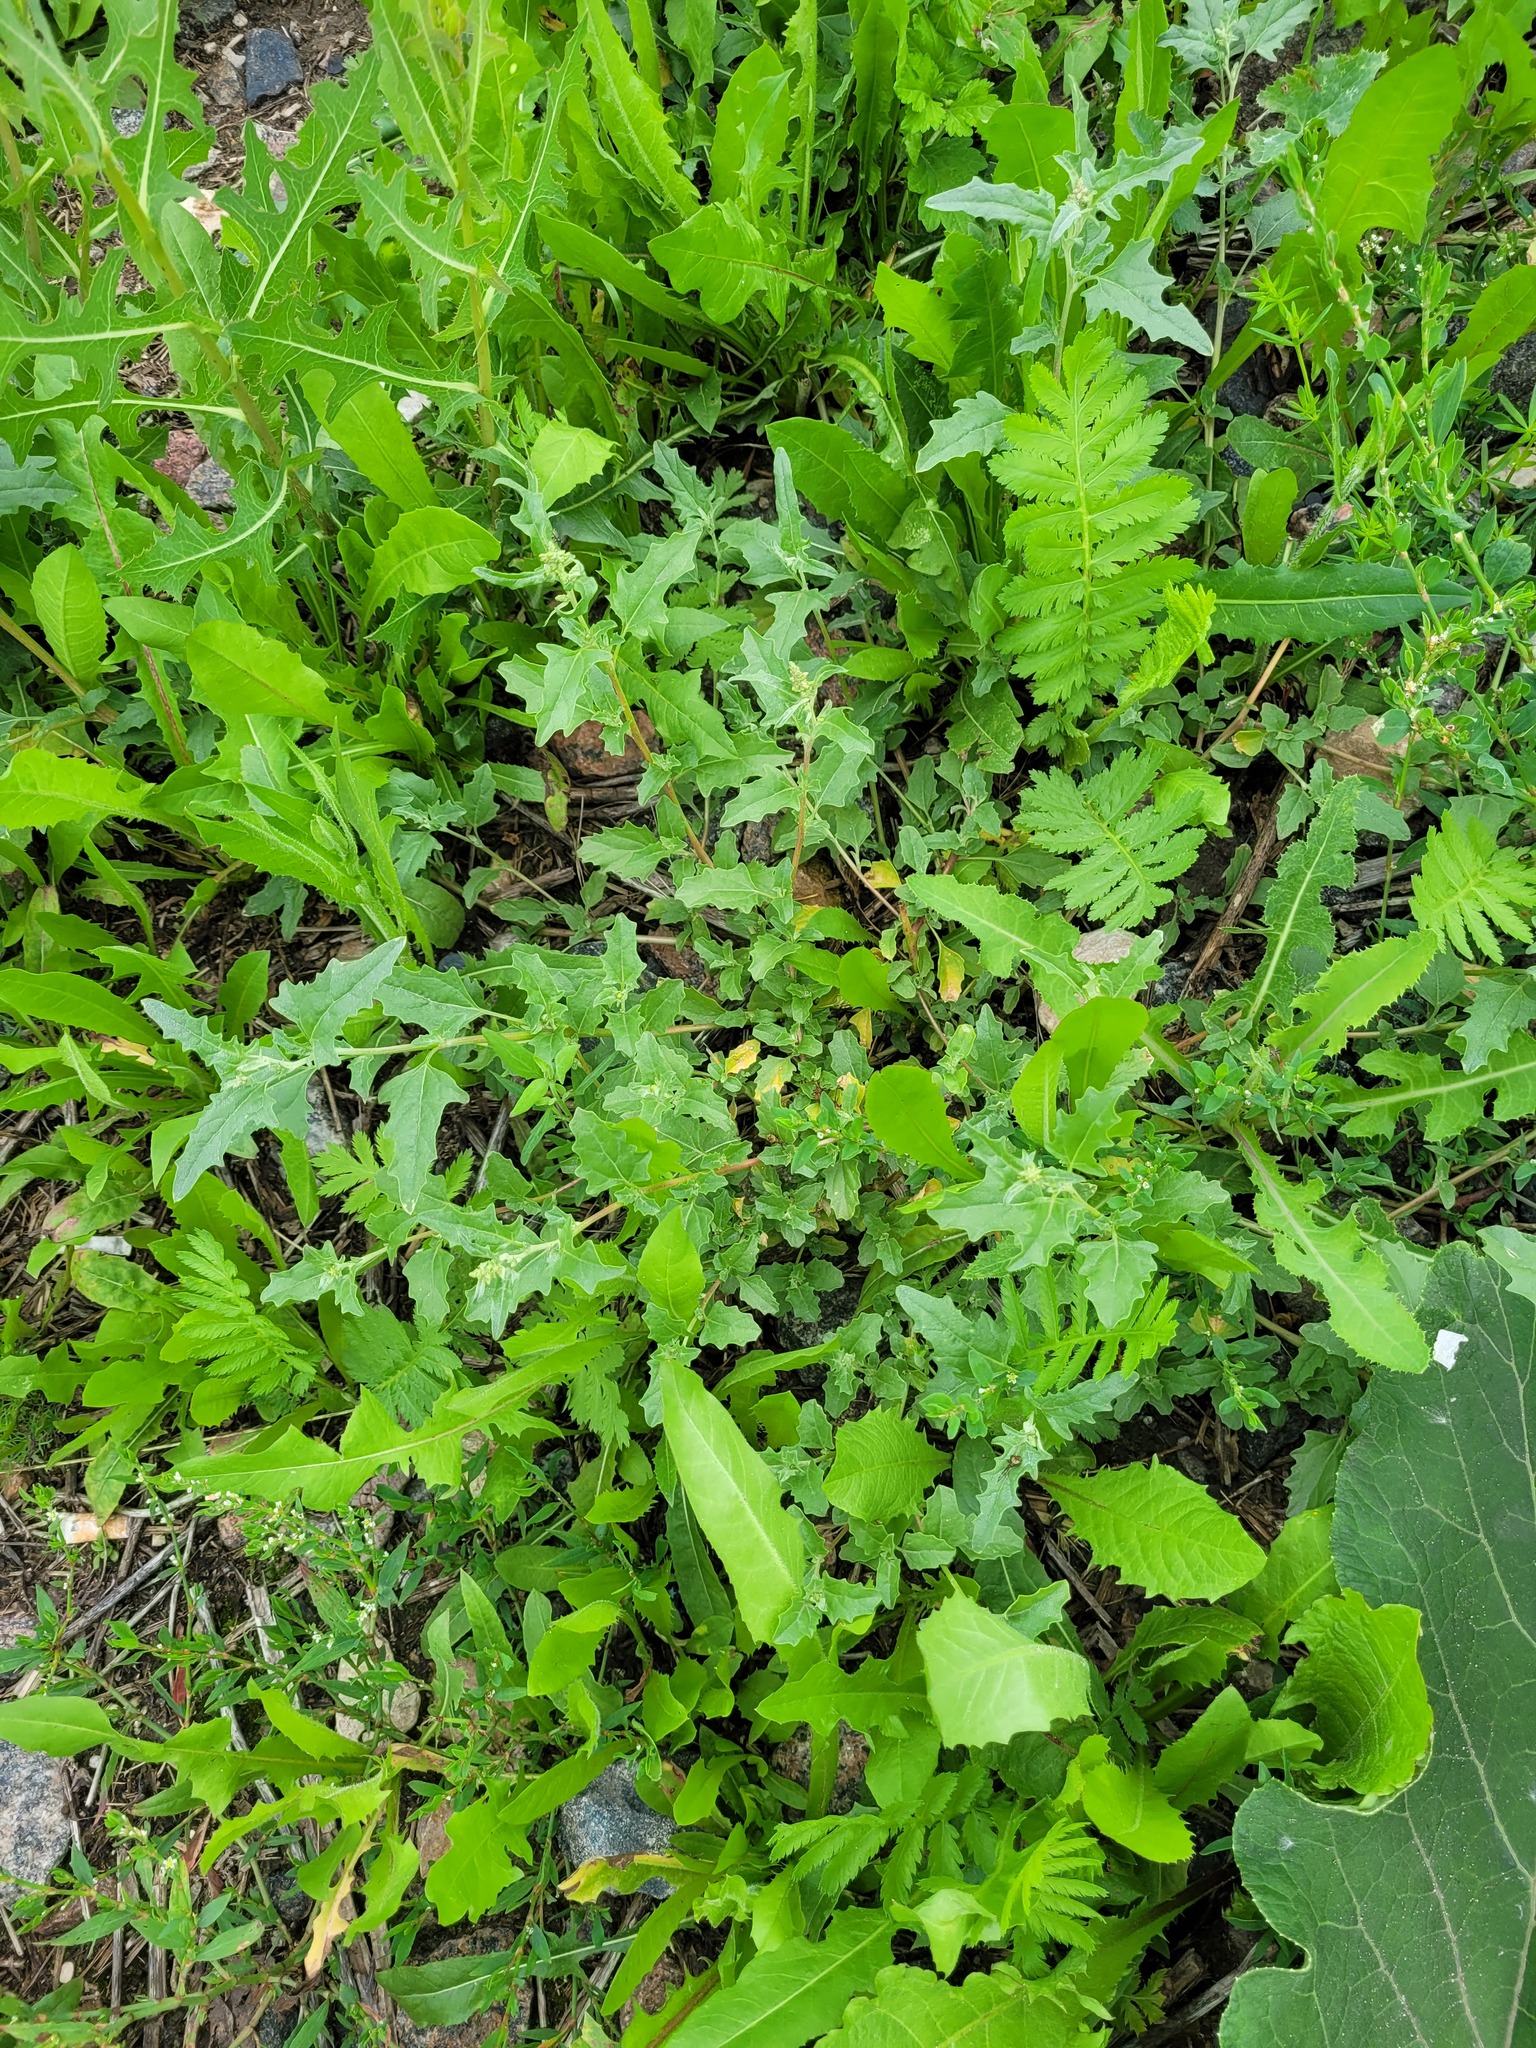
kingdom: Plantae
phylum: Tracheophyta
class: Magnoliopsida
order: Caryophyllales
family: Amaranthaceae
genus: Atriplex
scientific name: Atriplex tatarica
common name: Tatarian orache
